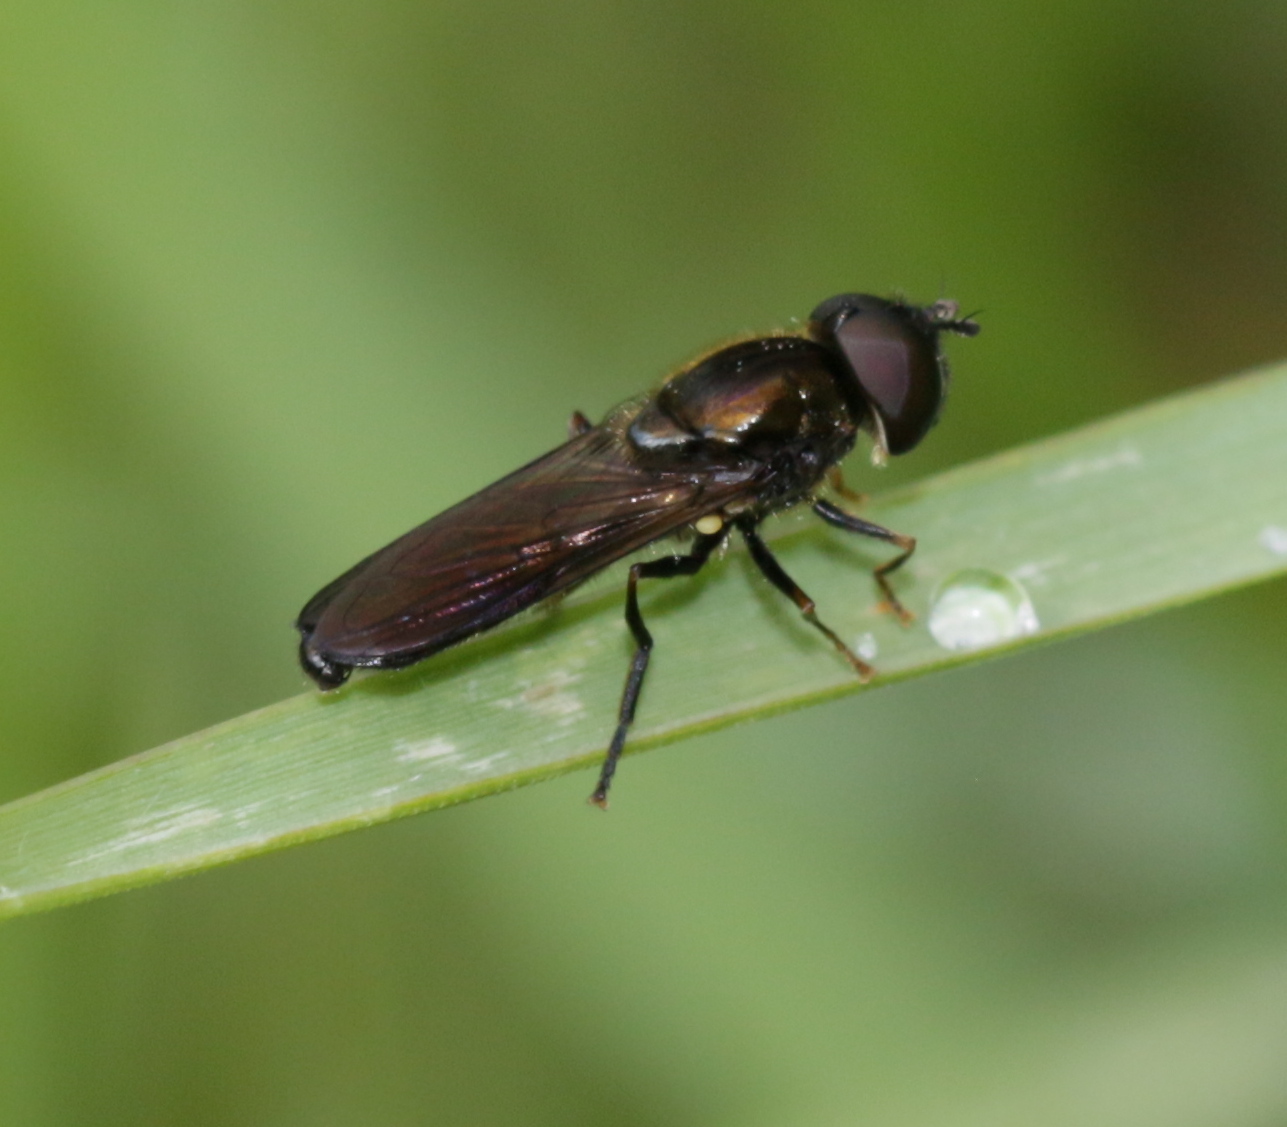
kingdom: Animalia
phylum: Arthropoda
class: Insecta
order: Diptera
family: Syrphidae
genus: Pyrophaena
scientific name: Pyrophaena rosarum
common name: Fourspot sedgesitter
